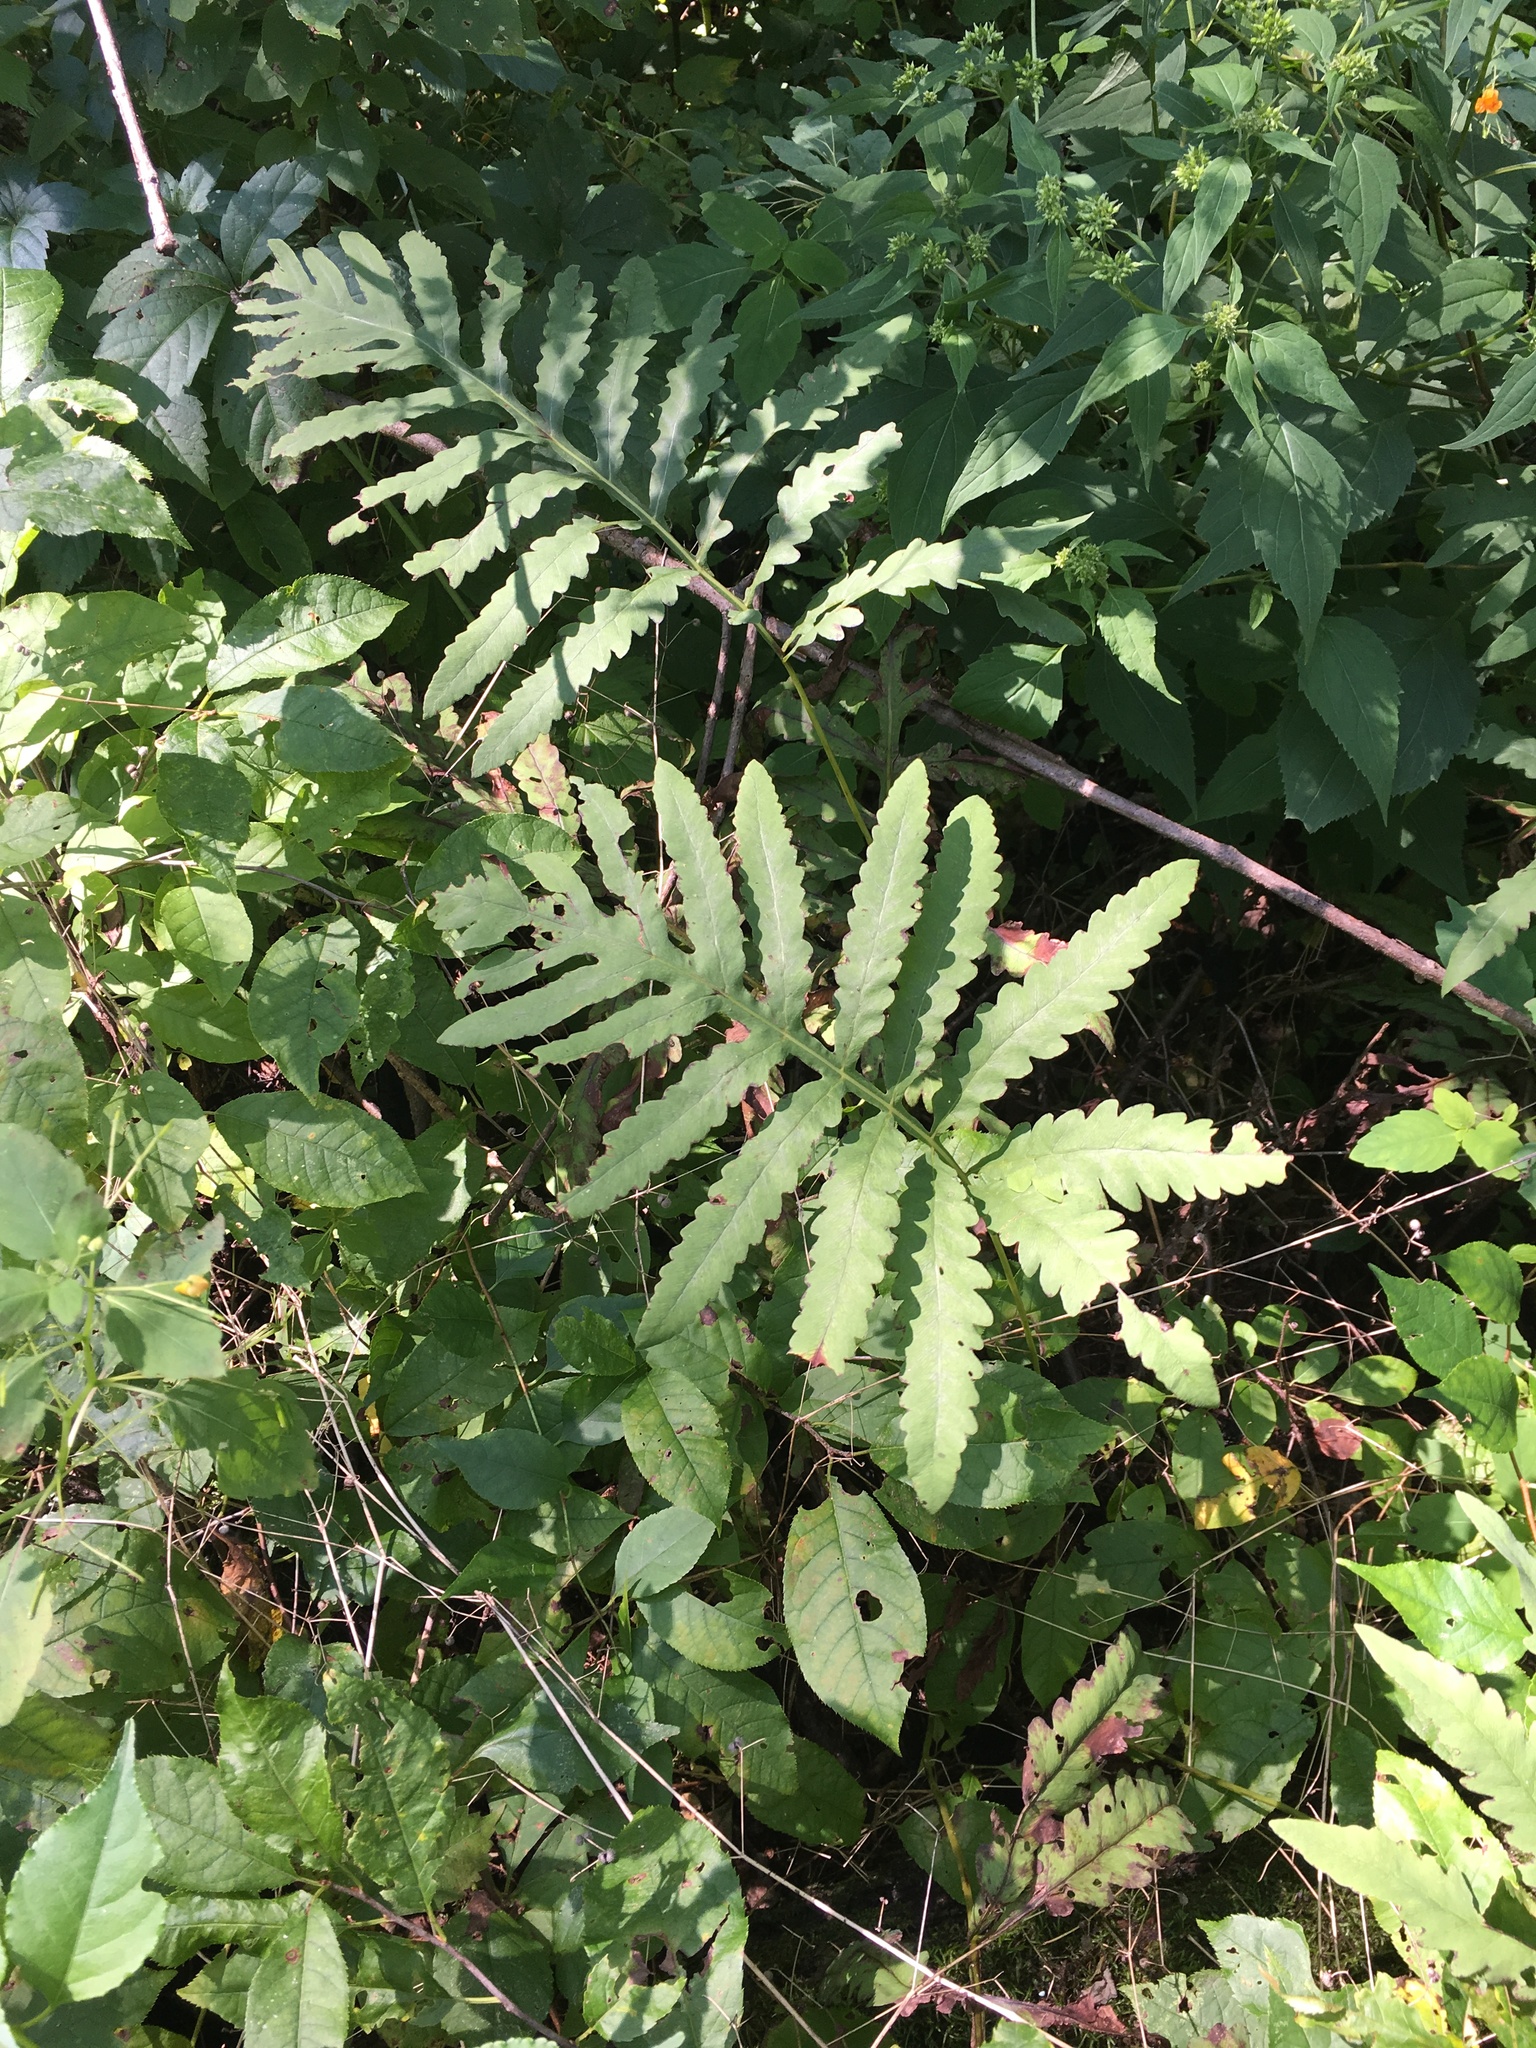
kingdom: Plantae
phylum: Tracheophyta
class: Polypodiopsida
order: Polypodiales
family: Onocleaceae
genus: Onoclea
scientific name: Onoclea sensibilis
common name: Sensitive fern
